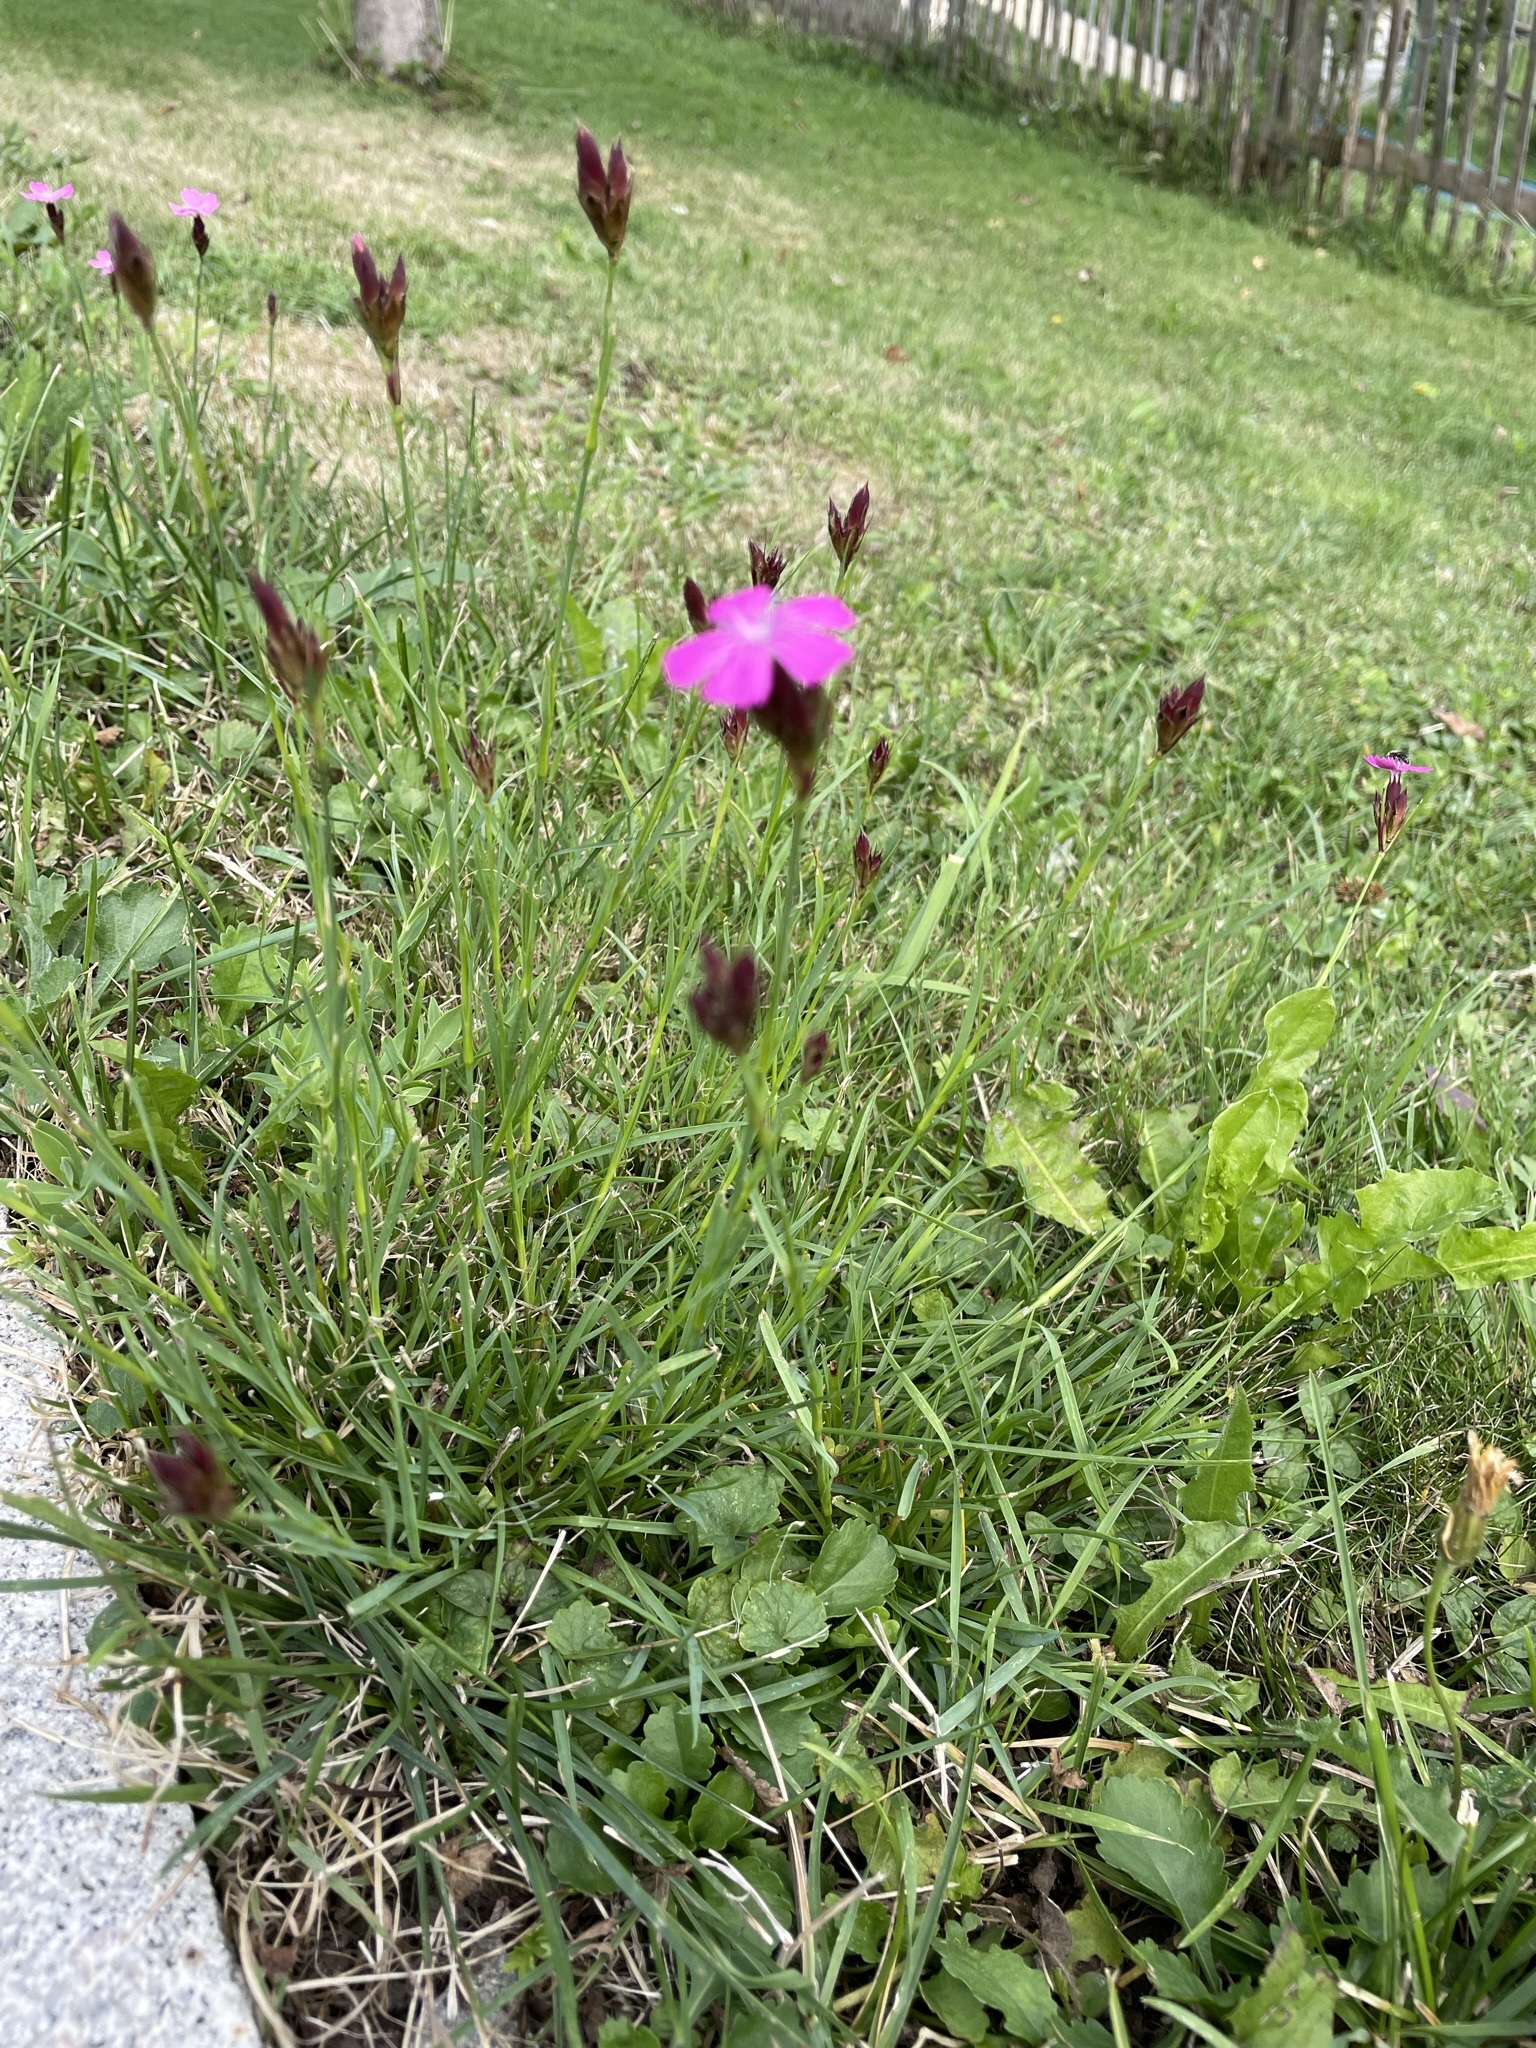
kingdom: Plantae
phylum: Tracheophyta
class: Magnoliopsida
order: Caryophyllales
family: Caryophyllaceae
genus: Dianthus
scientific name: Dianthus carthusianorum
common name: Carthusian pink
